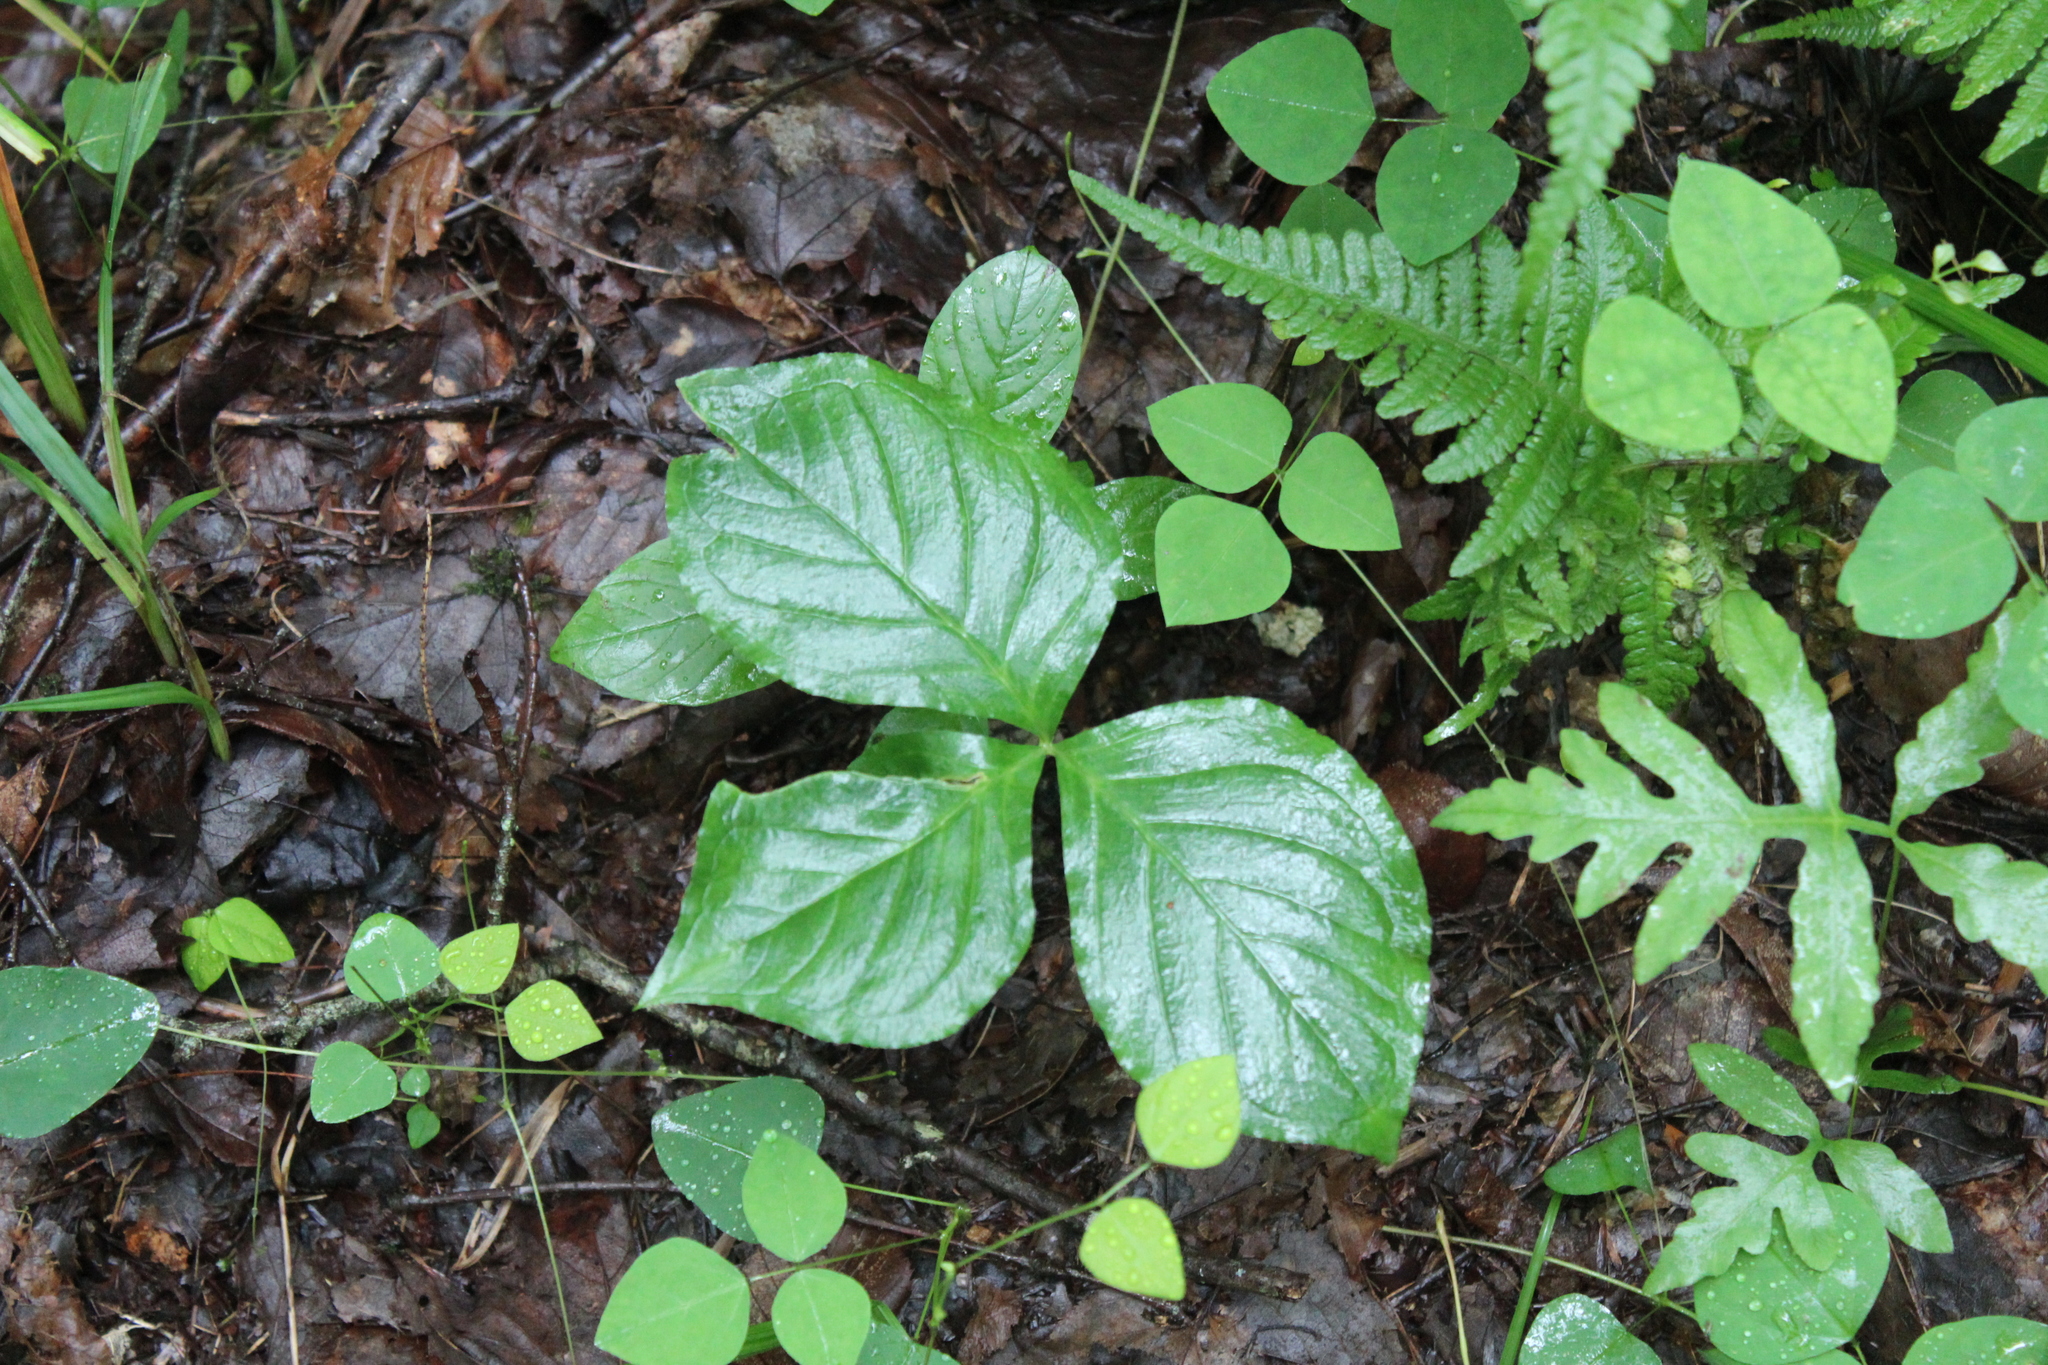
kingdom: Plantae
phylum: Tracheophyta
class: Liliopsida
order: Alismatales
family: Araceae
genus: Arisaema
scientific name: Arisaema triphyllum
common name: Jack-in-the-pulpit
